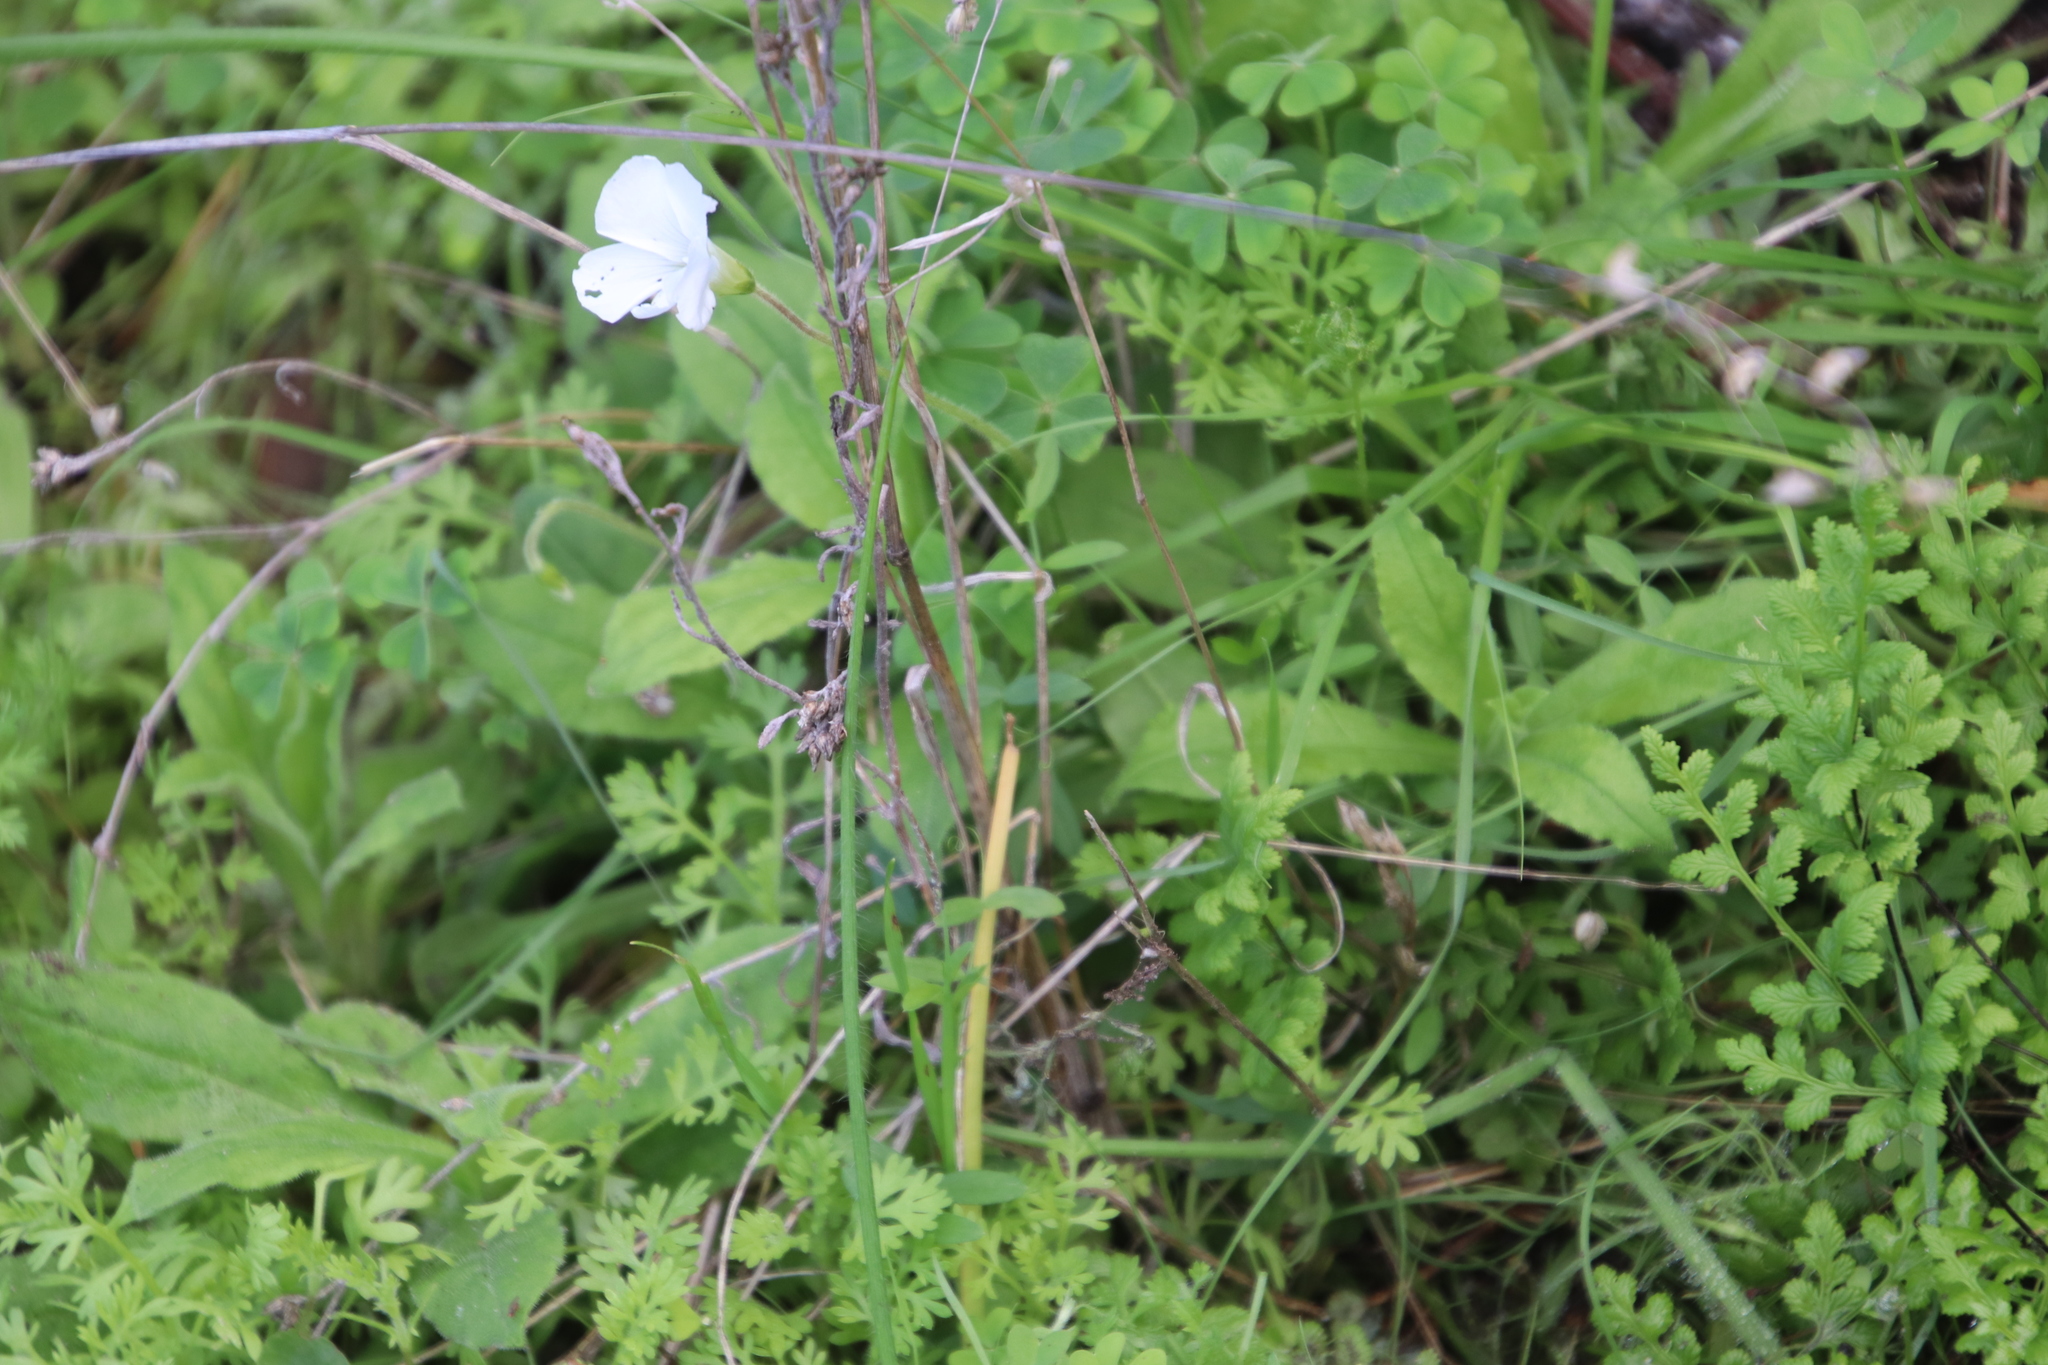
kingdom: Plantae
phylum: Tracheophyta
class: Magnoliopsida
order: Oxalidales
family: Oxalidaceae
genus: Oxalis
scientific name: Oxalis lanata
